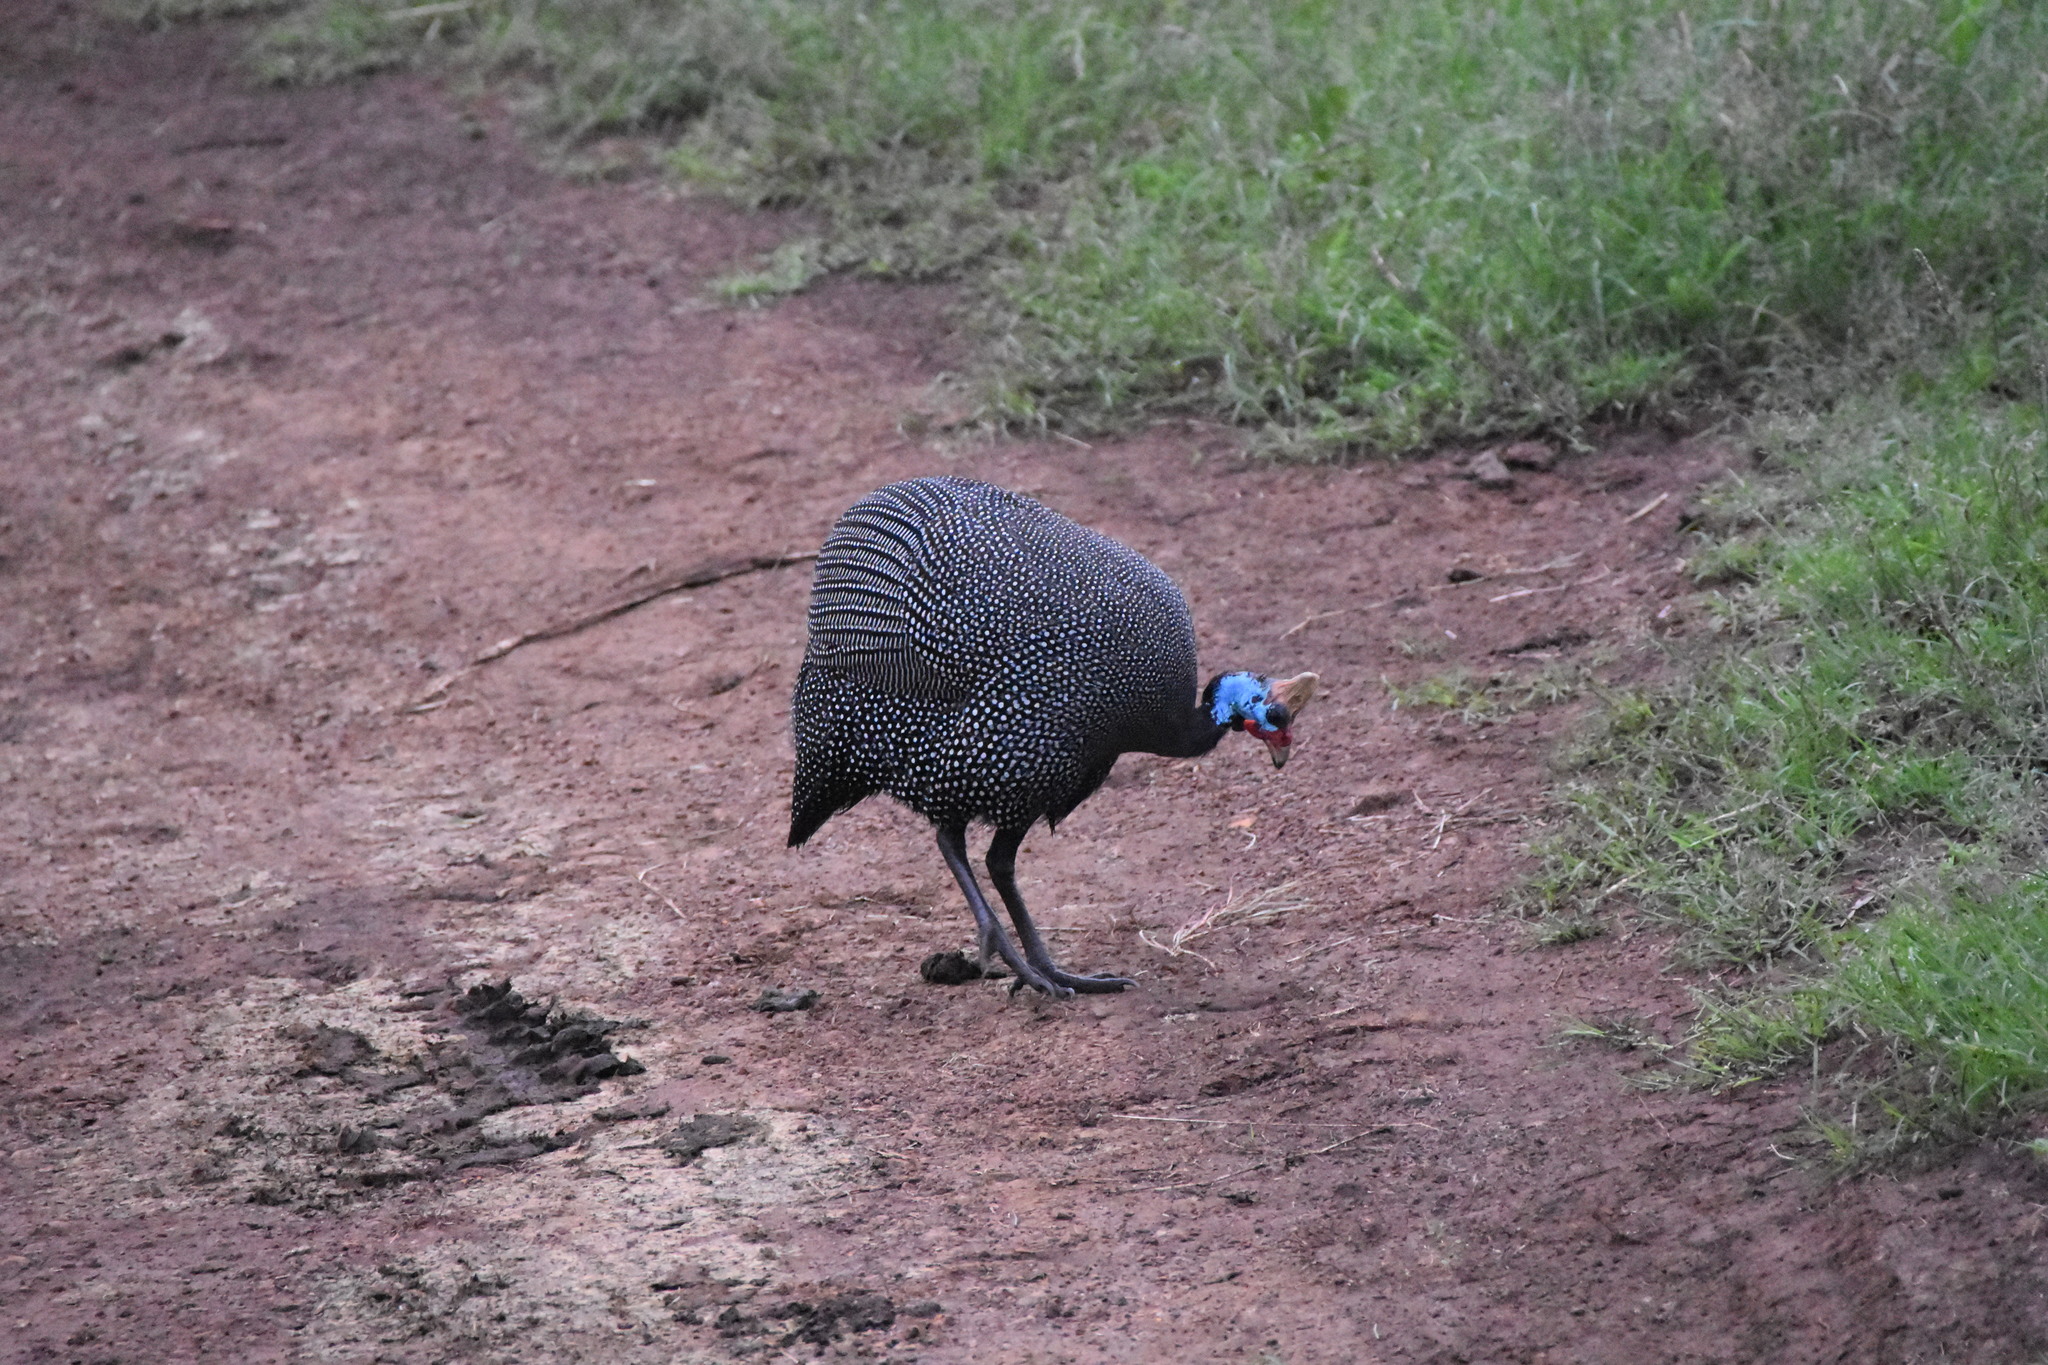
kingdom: Animalia
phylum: Chordata
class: Aves
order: Galliformes
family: Numididae
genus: Numida
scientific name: Numida meleagris
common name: Helmeted guineafowl
